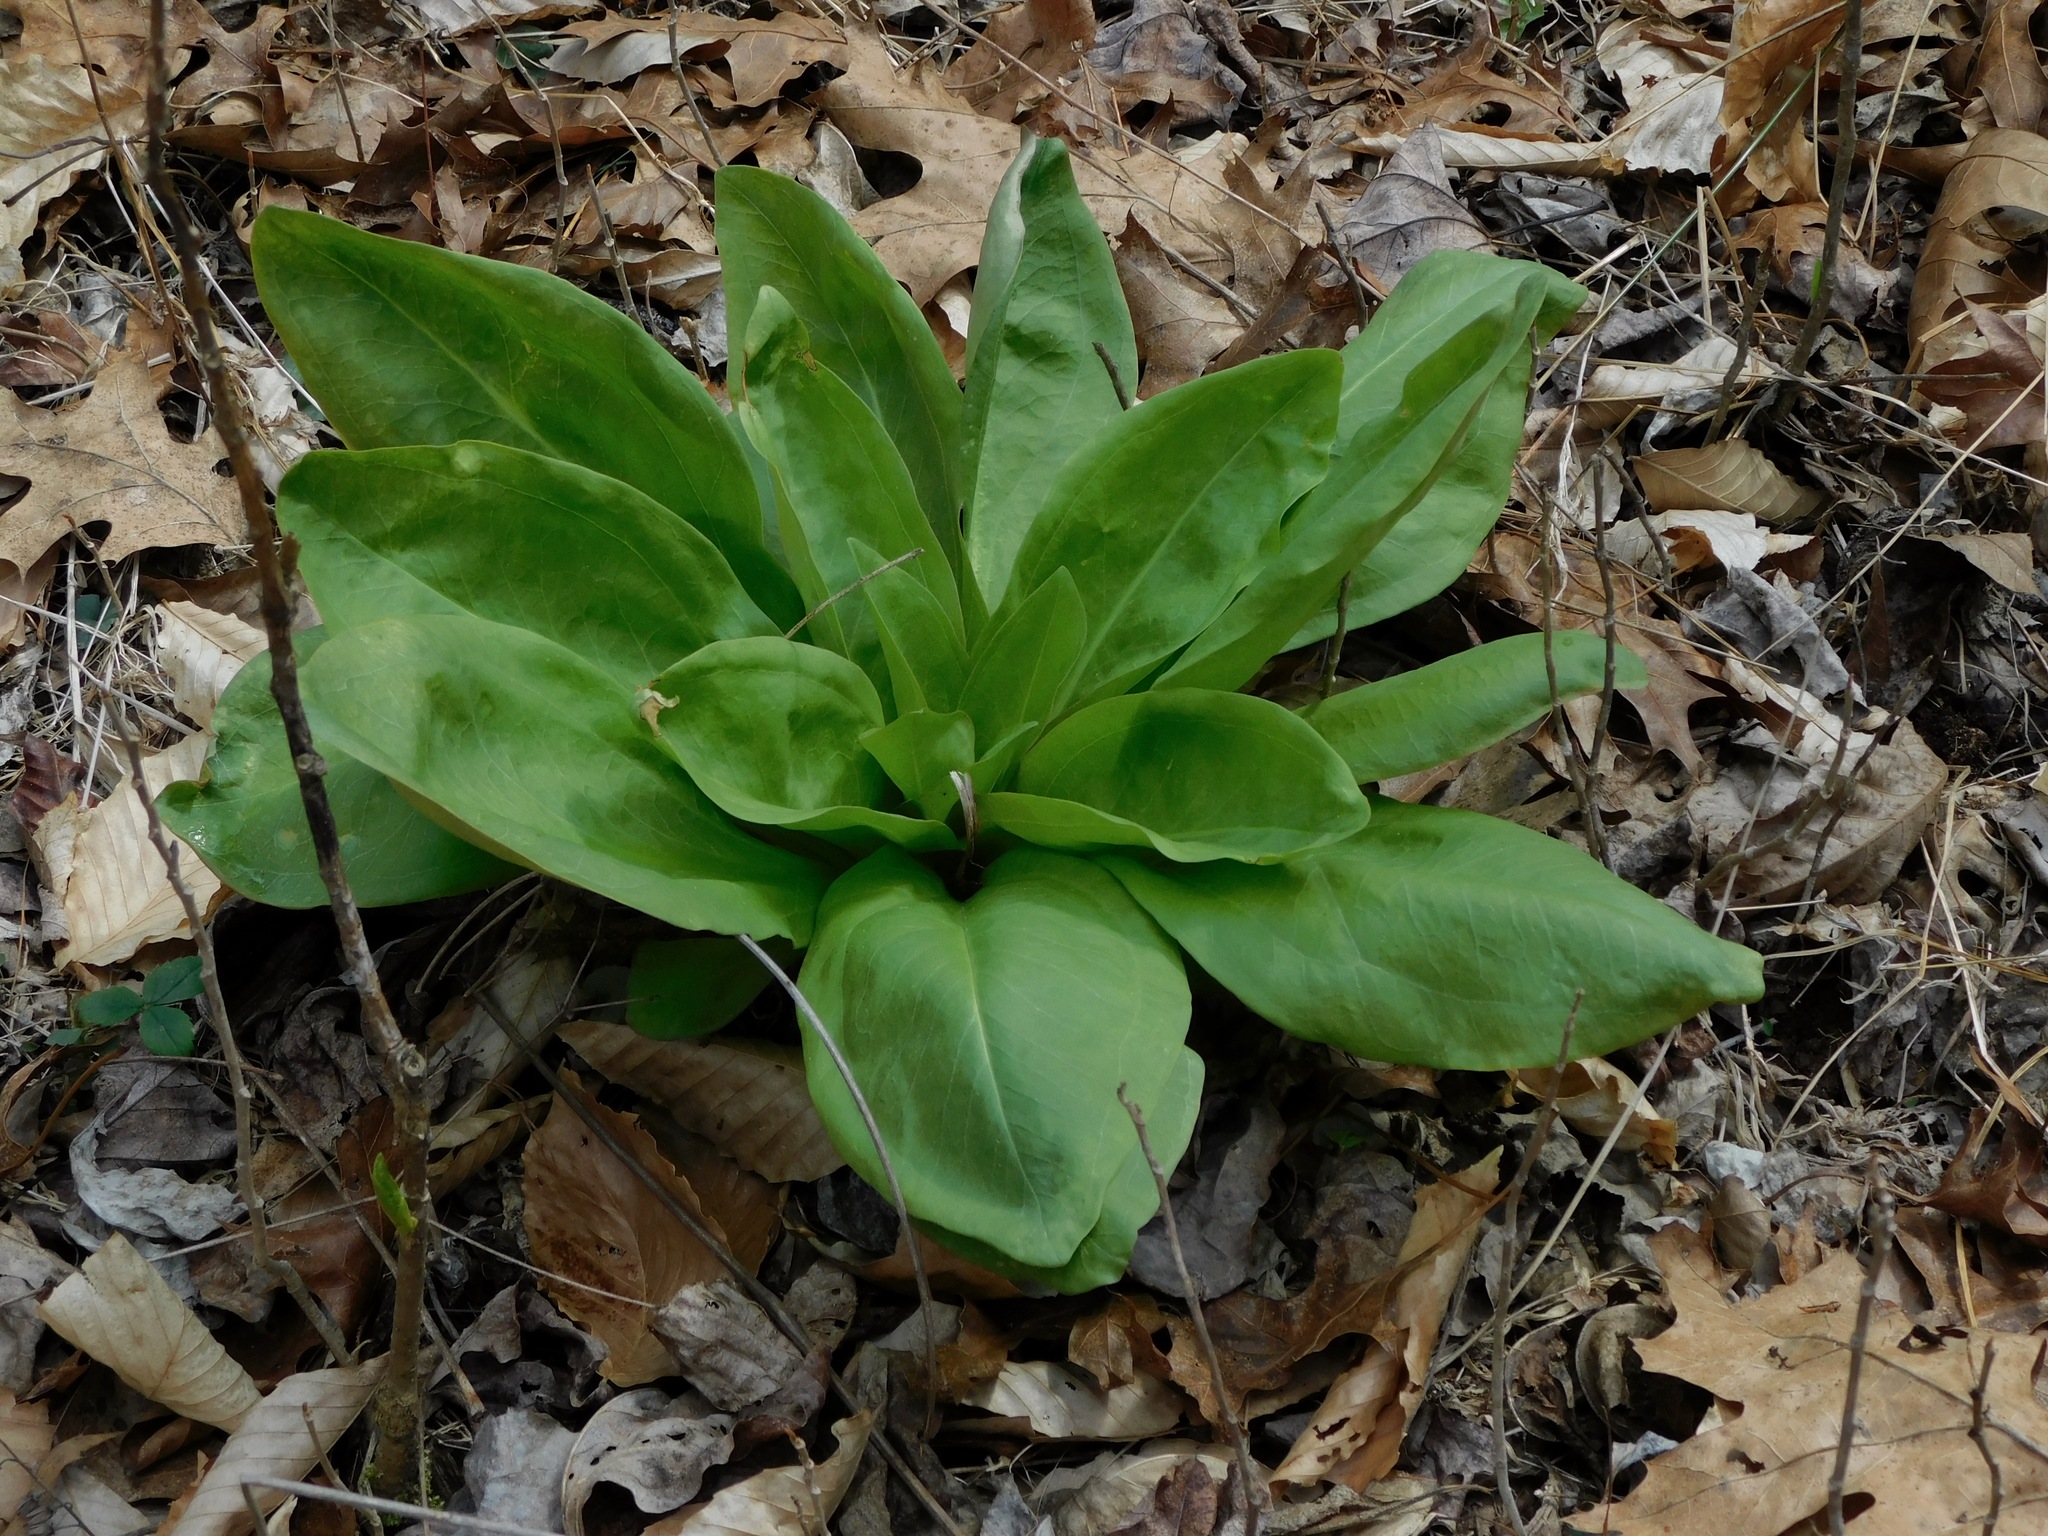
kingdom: Plantae
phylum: Tracheophyta
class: Magnoliopsida
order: Gentianales
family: Gentianaceae
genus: Frasera
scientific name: Frasera caroliniensis
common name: American columbo
